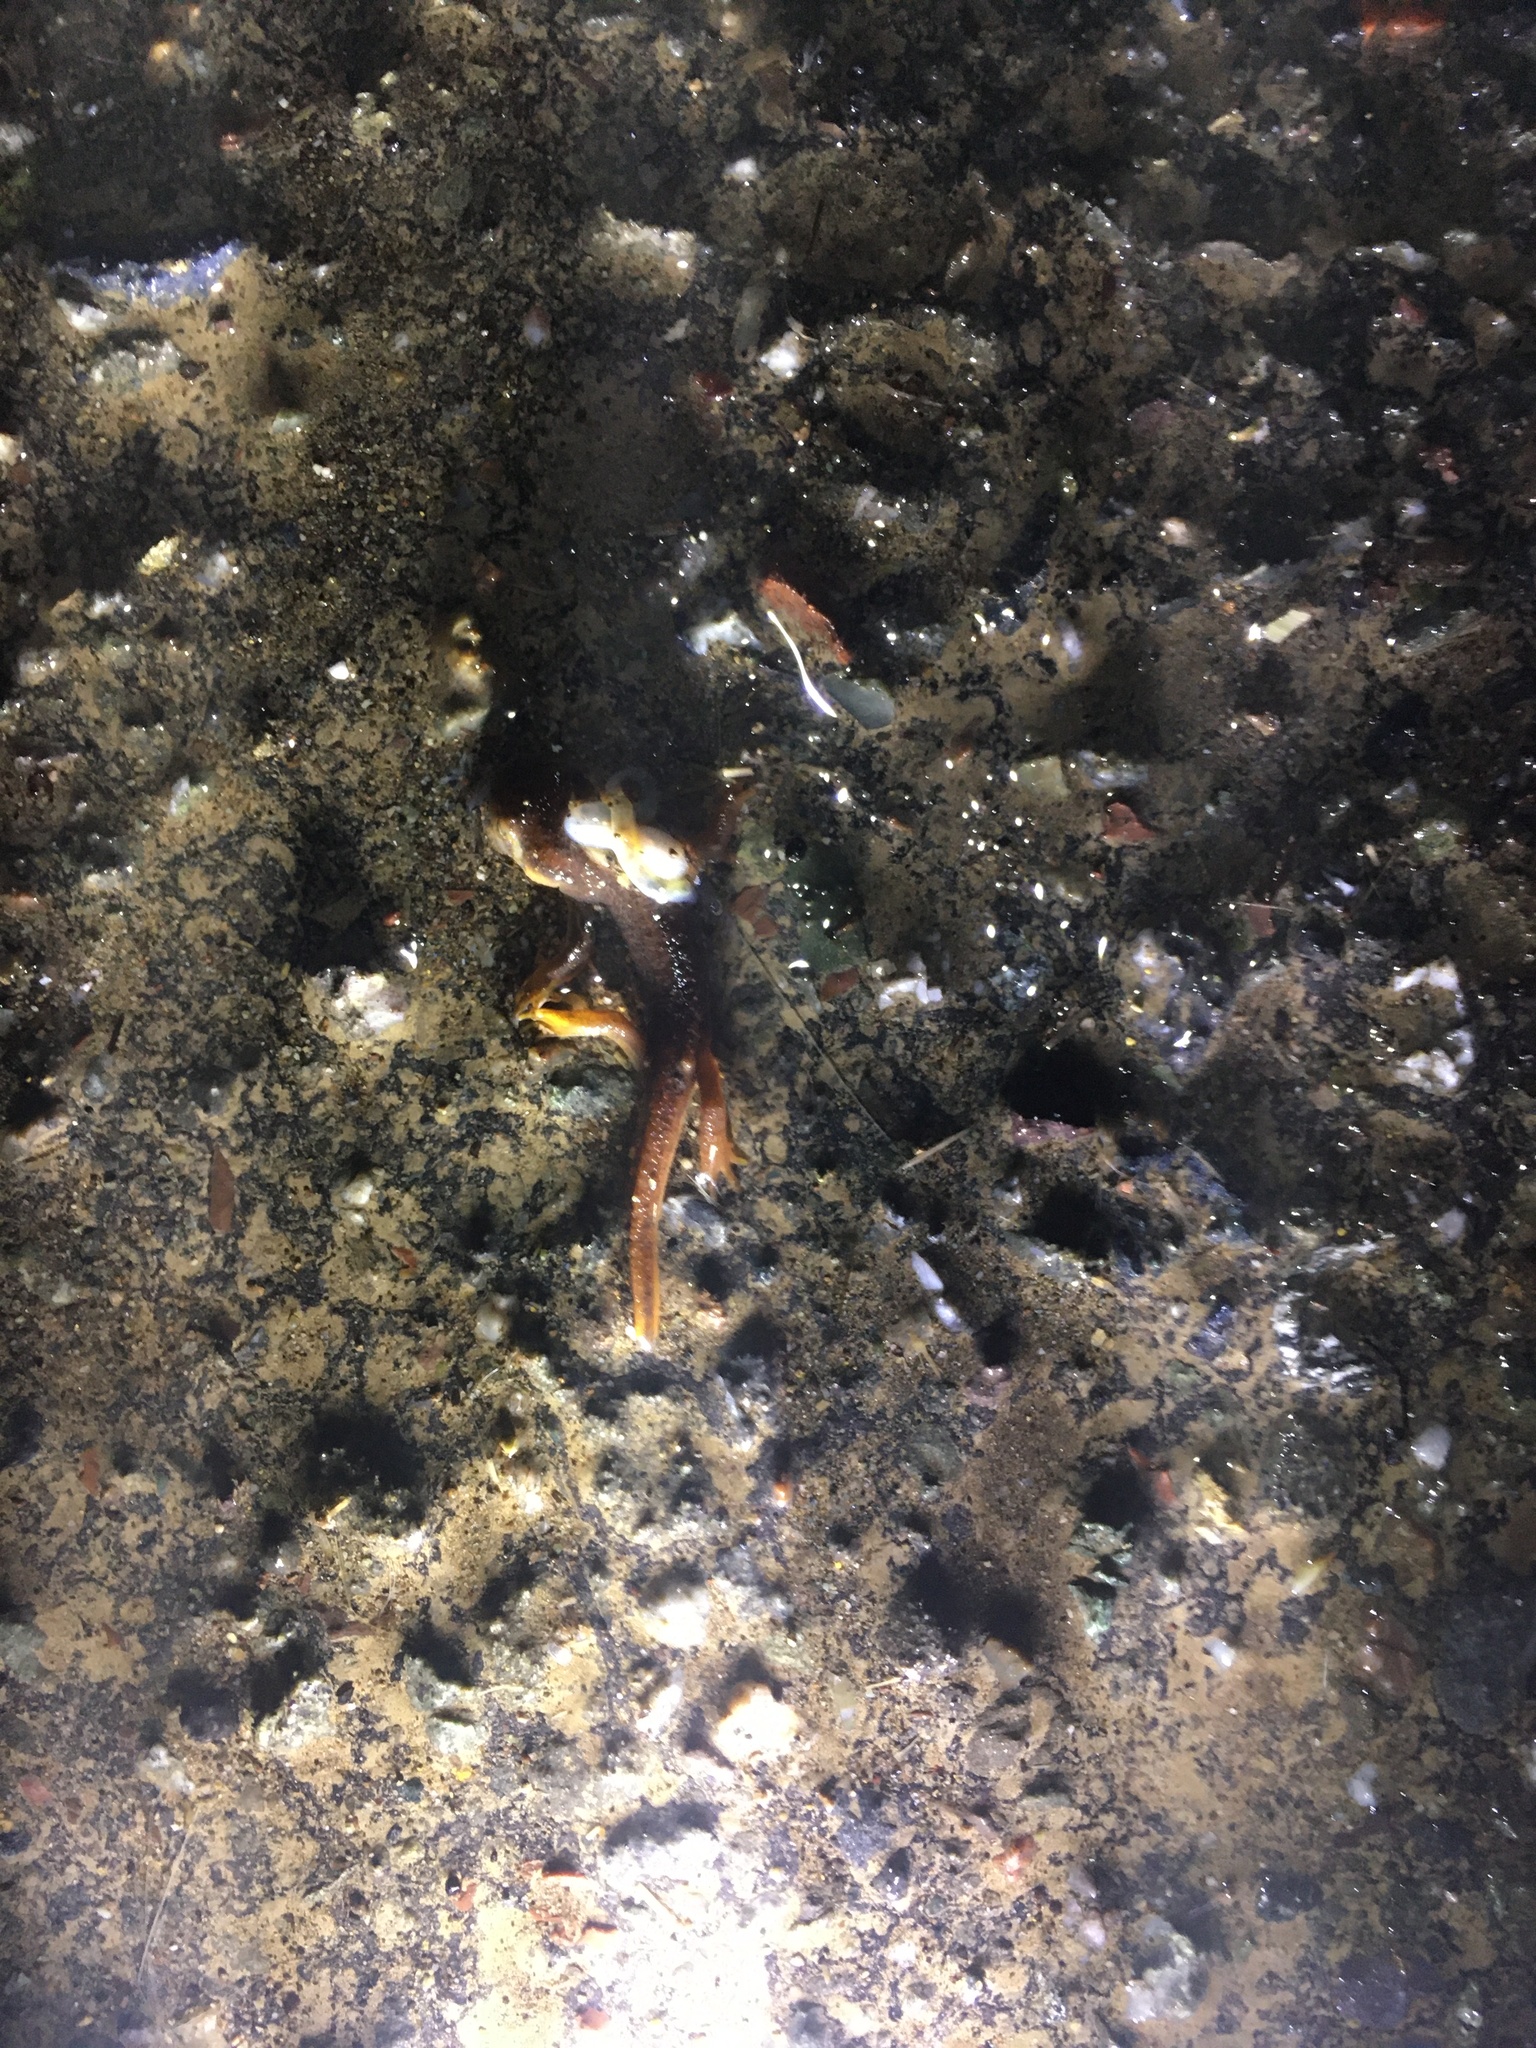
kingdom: Animalia
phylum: Chordata
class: Amphibia
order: Caudata
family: Salamandridae
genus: Taricha
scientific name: Taricha
